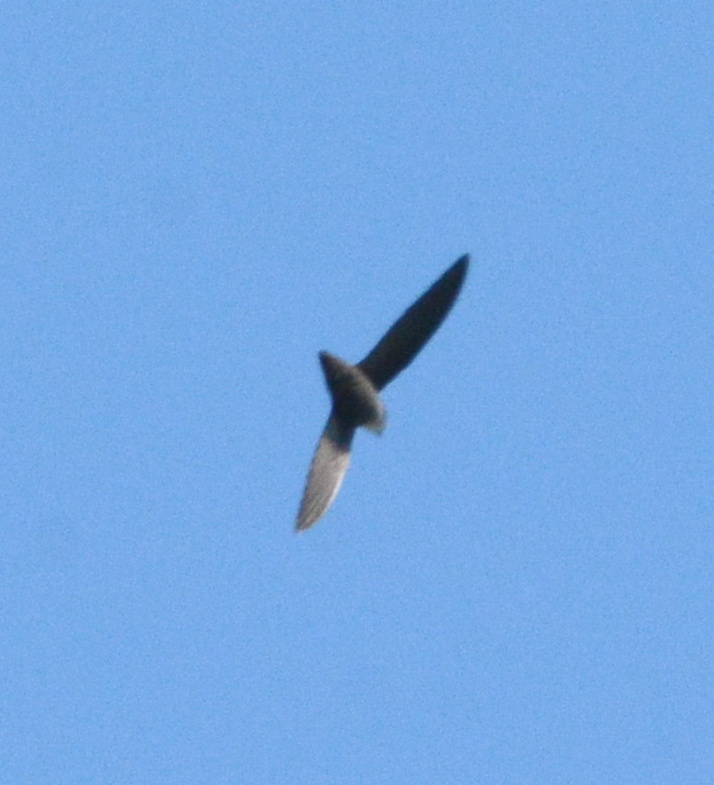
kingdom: Animalia
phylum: Chordata
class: Aves
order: Apodiformes
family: Apodidae
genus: Chaetura
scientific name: Chaetura pelagica
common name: Chimney swift
